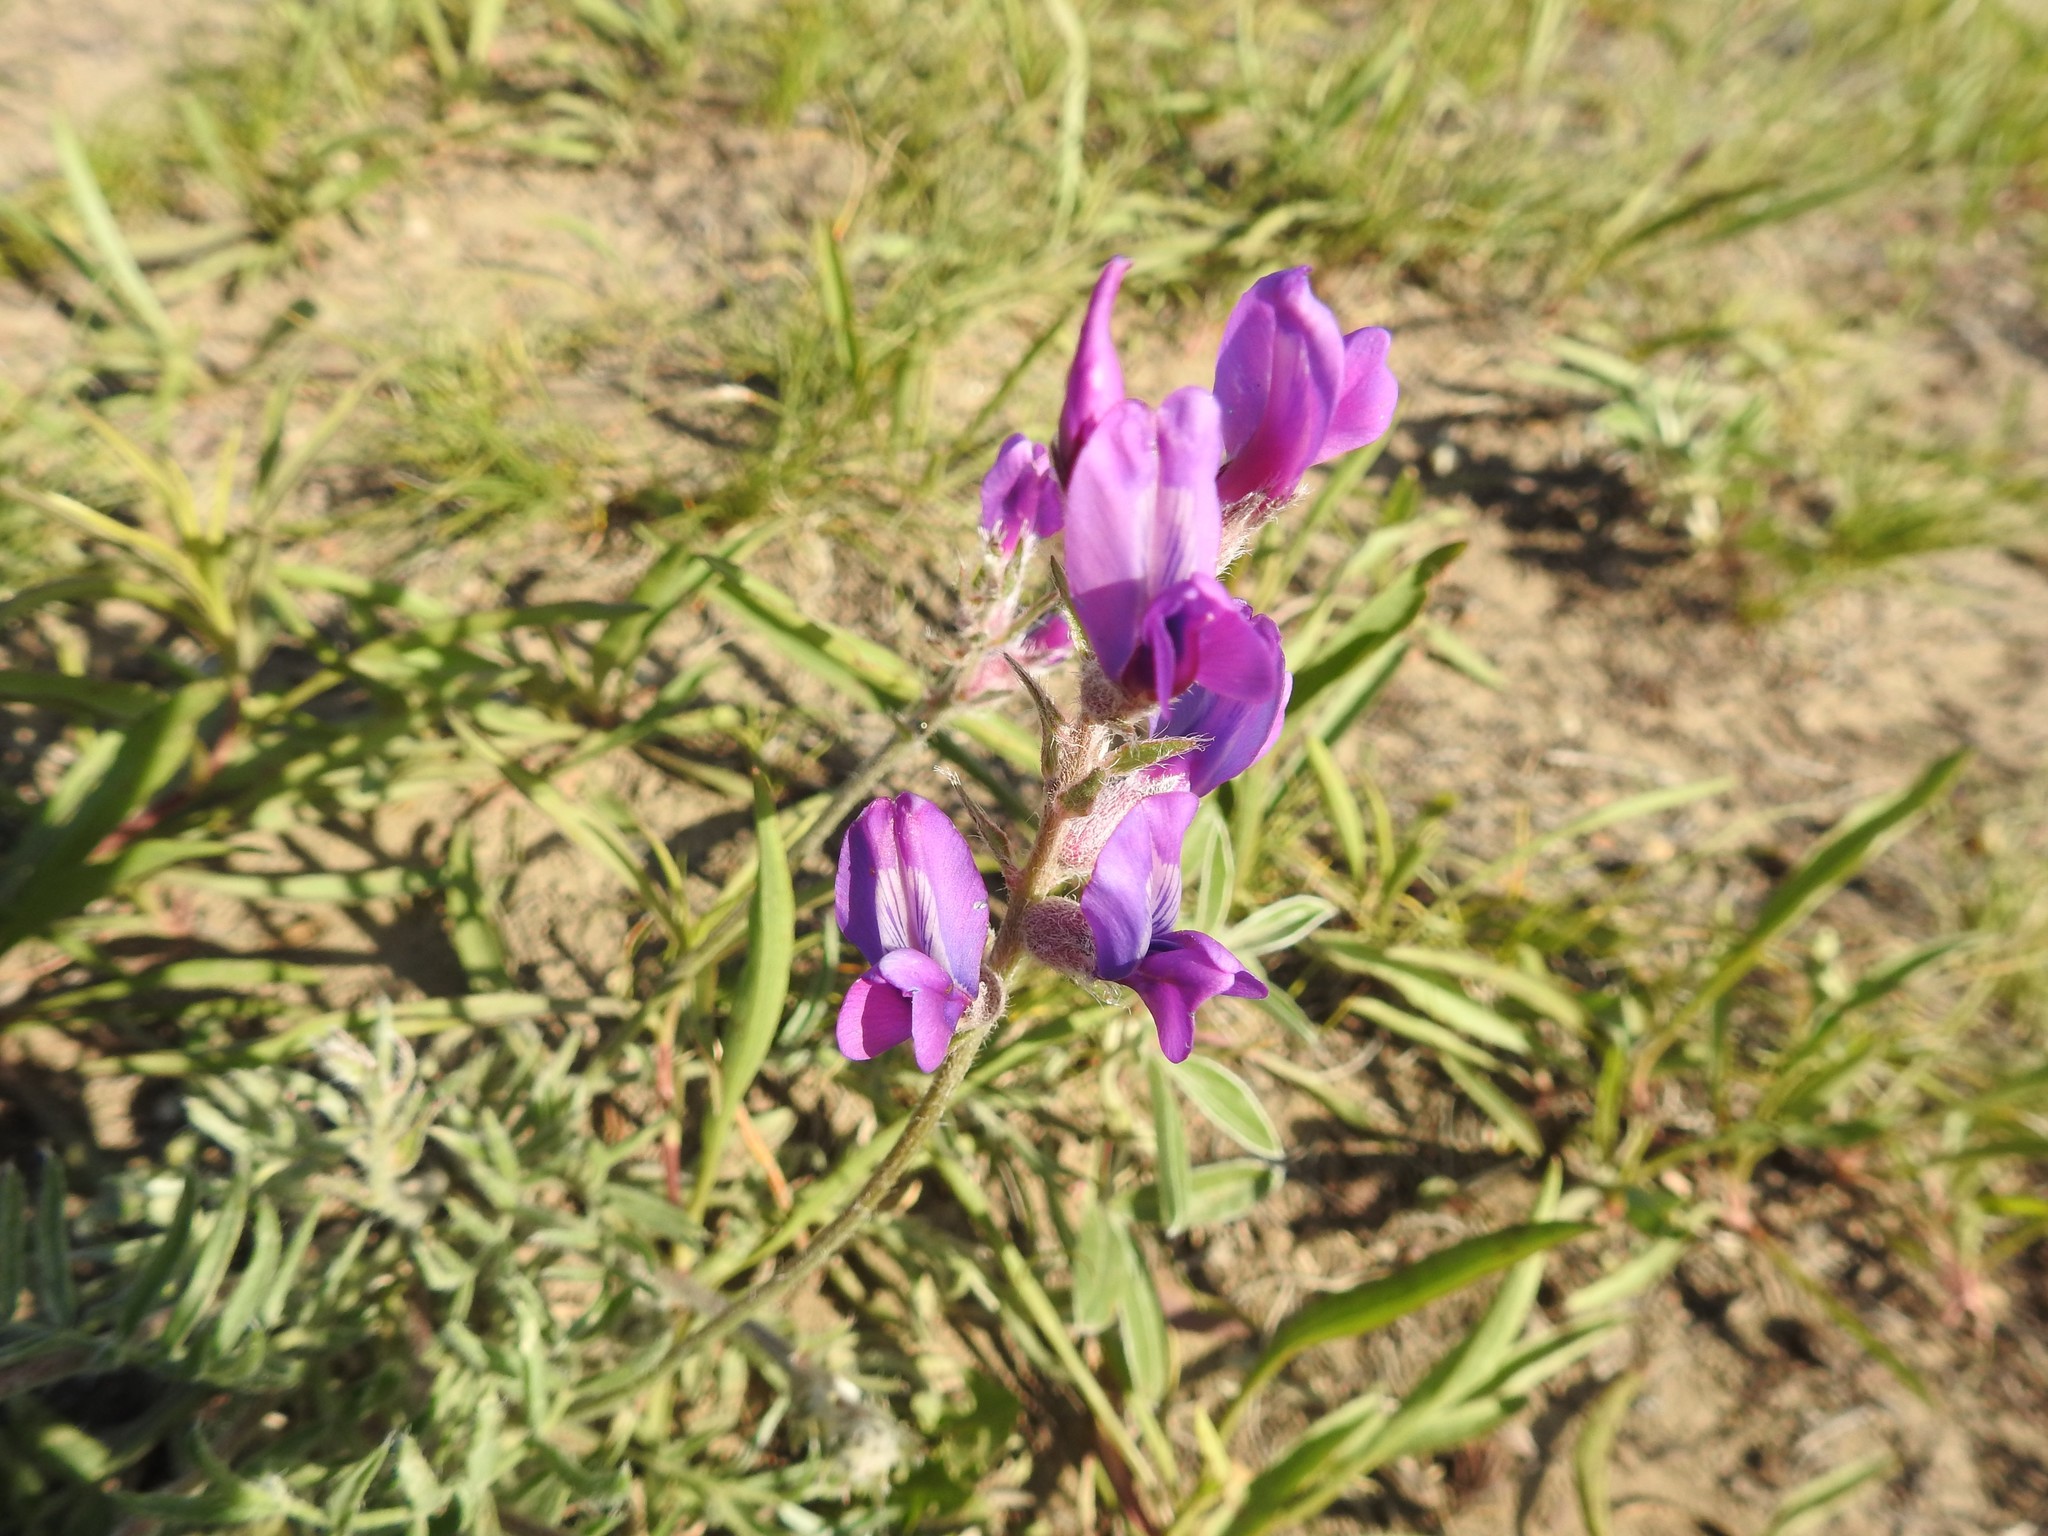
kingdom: Plantae
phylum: Tracheophyta
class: Magnoliopsida
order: Fabales
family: Fabaceae
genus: Oxytropis
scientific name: Oxytropis lambertii
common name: Purple locoweed
